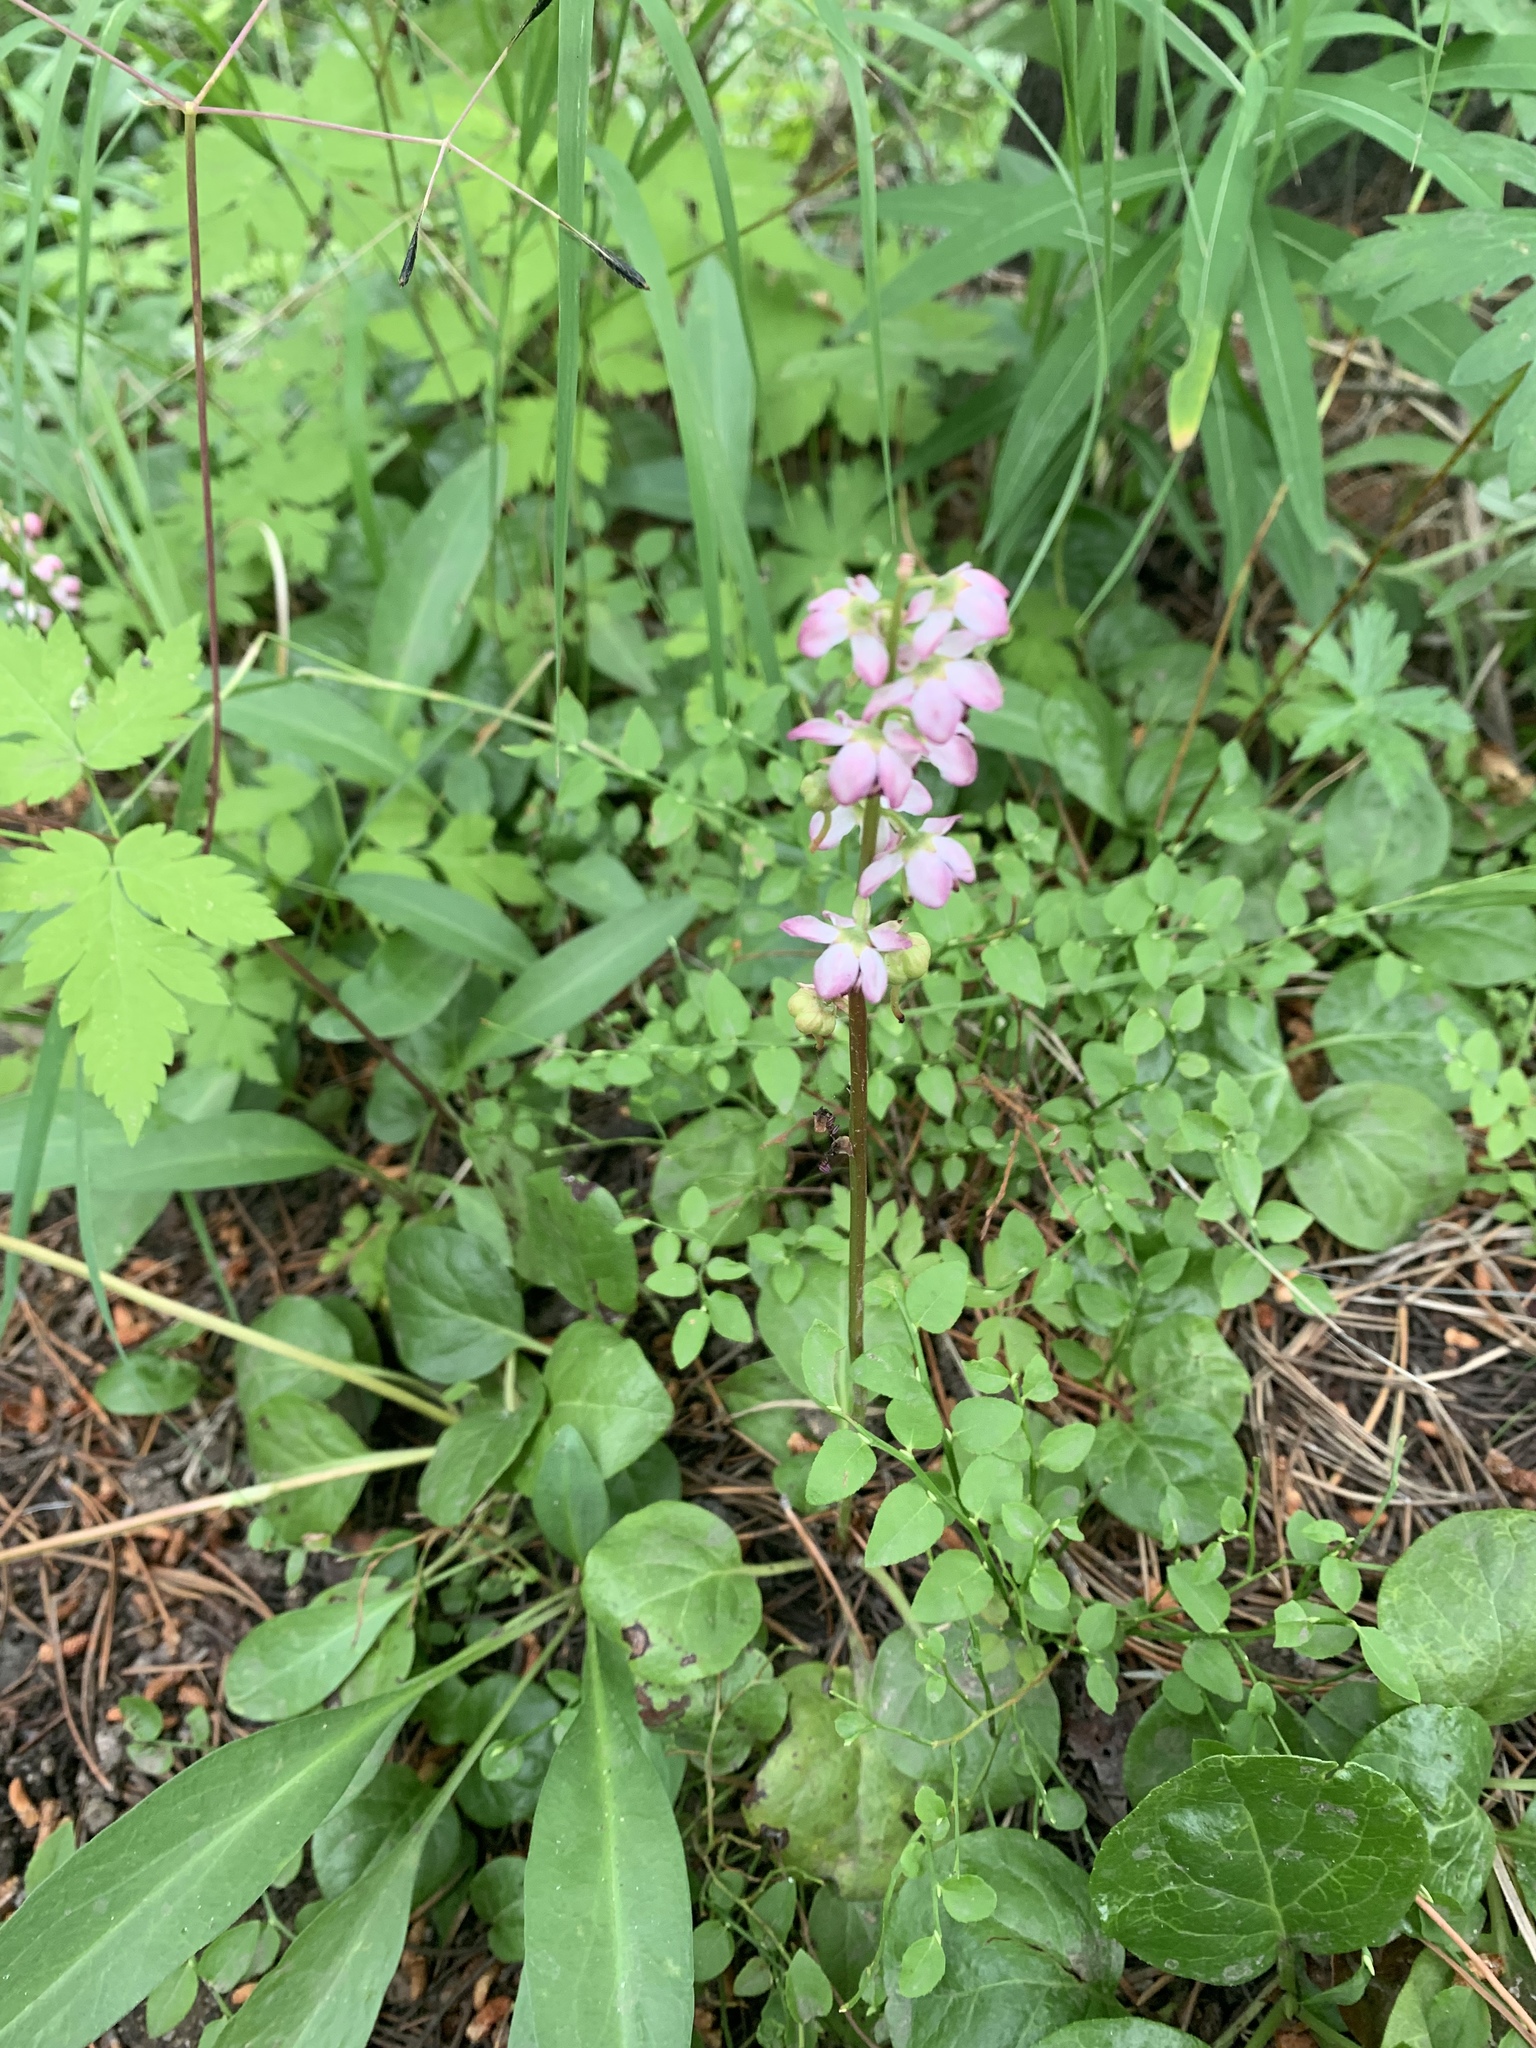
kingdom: Plantae
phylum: Tracheophyta
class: Magnoliopsida
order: Ericales
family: Ericaceae
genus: Pyrola
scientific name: Pyrola asarifolia
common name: Bog wintergreen
